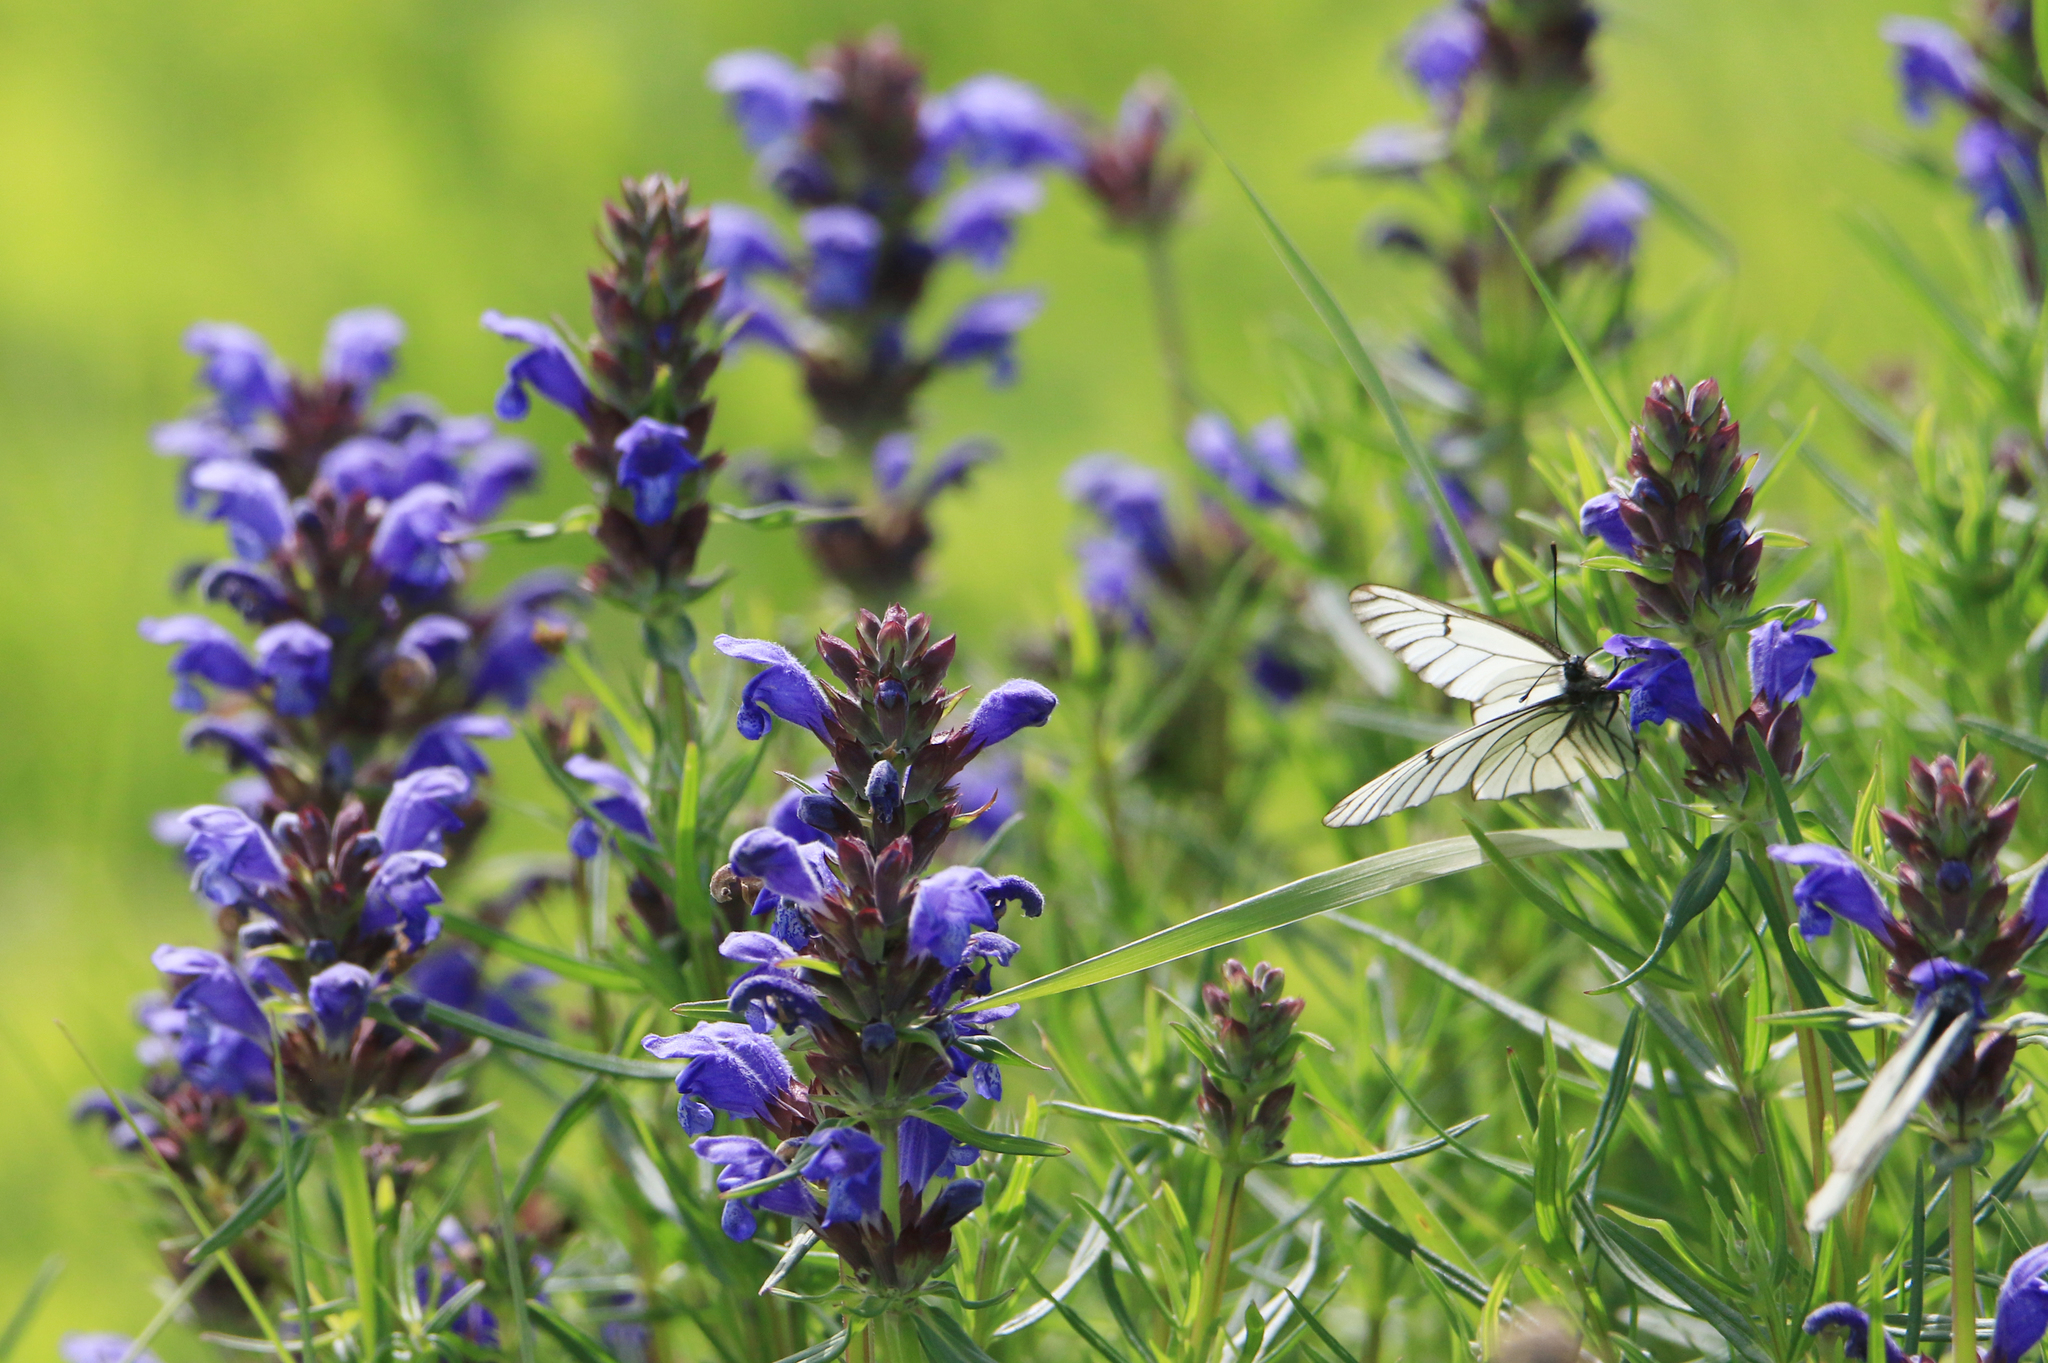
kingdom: Plantae
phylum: Tracheophyta
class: Magnoliopsida
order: Lamiales
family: Lamiaceae
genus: Dracocephalum
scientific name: Dracocephalum ruyschiana
